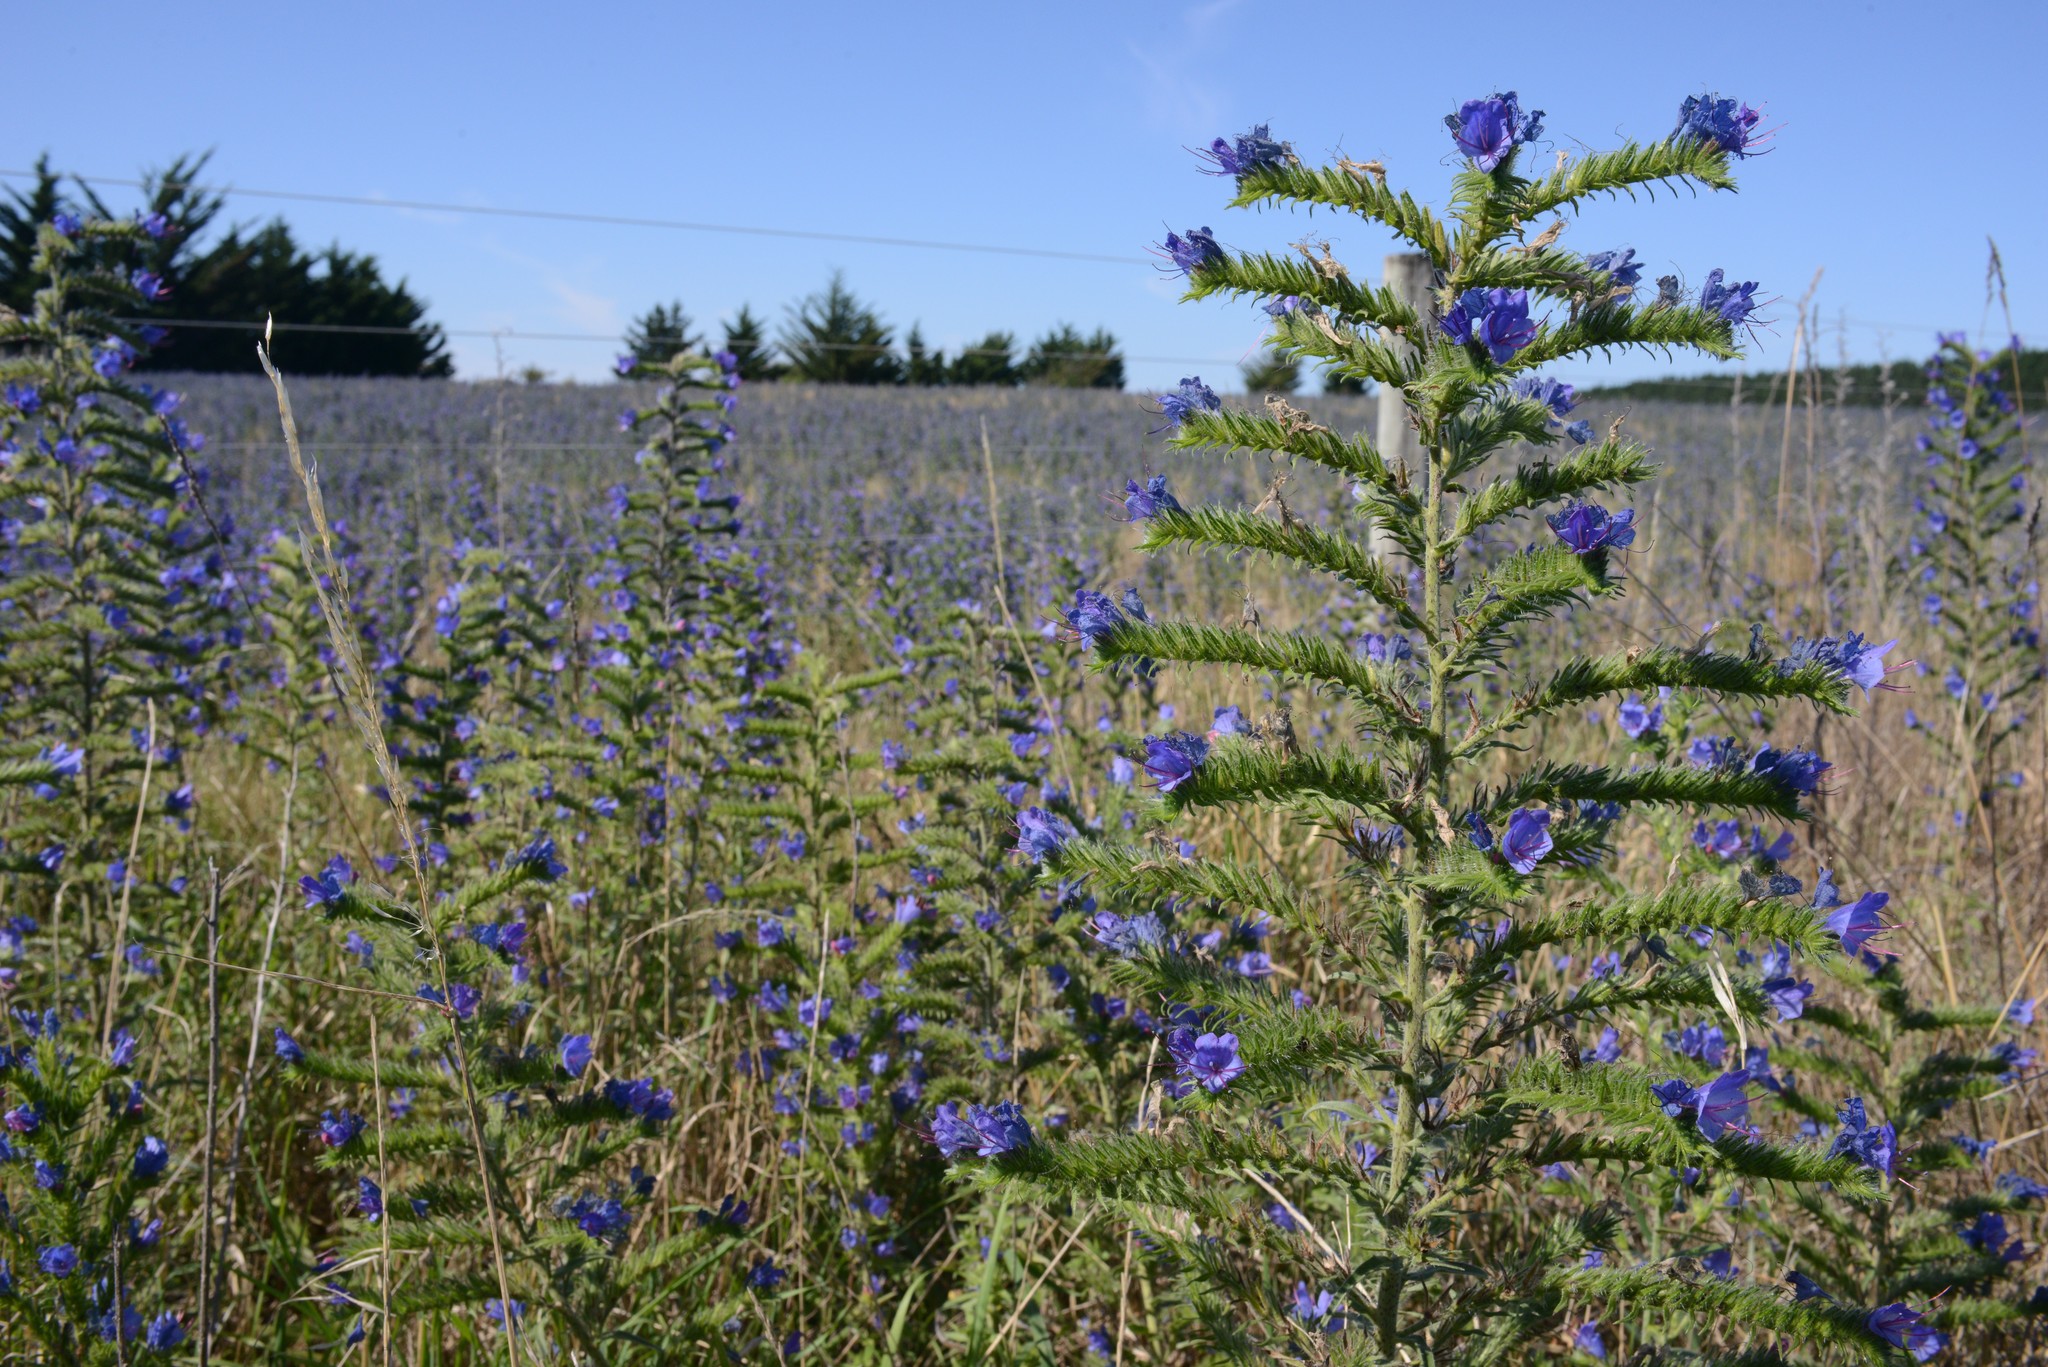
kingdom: Plantae
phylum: Tracheophyta
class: Magnoliopsida
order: Boraginales
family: Boraginaceae
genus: Echium
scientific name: Echium vulgare
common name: Common viper's bugloss
